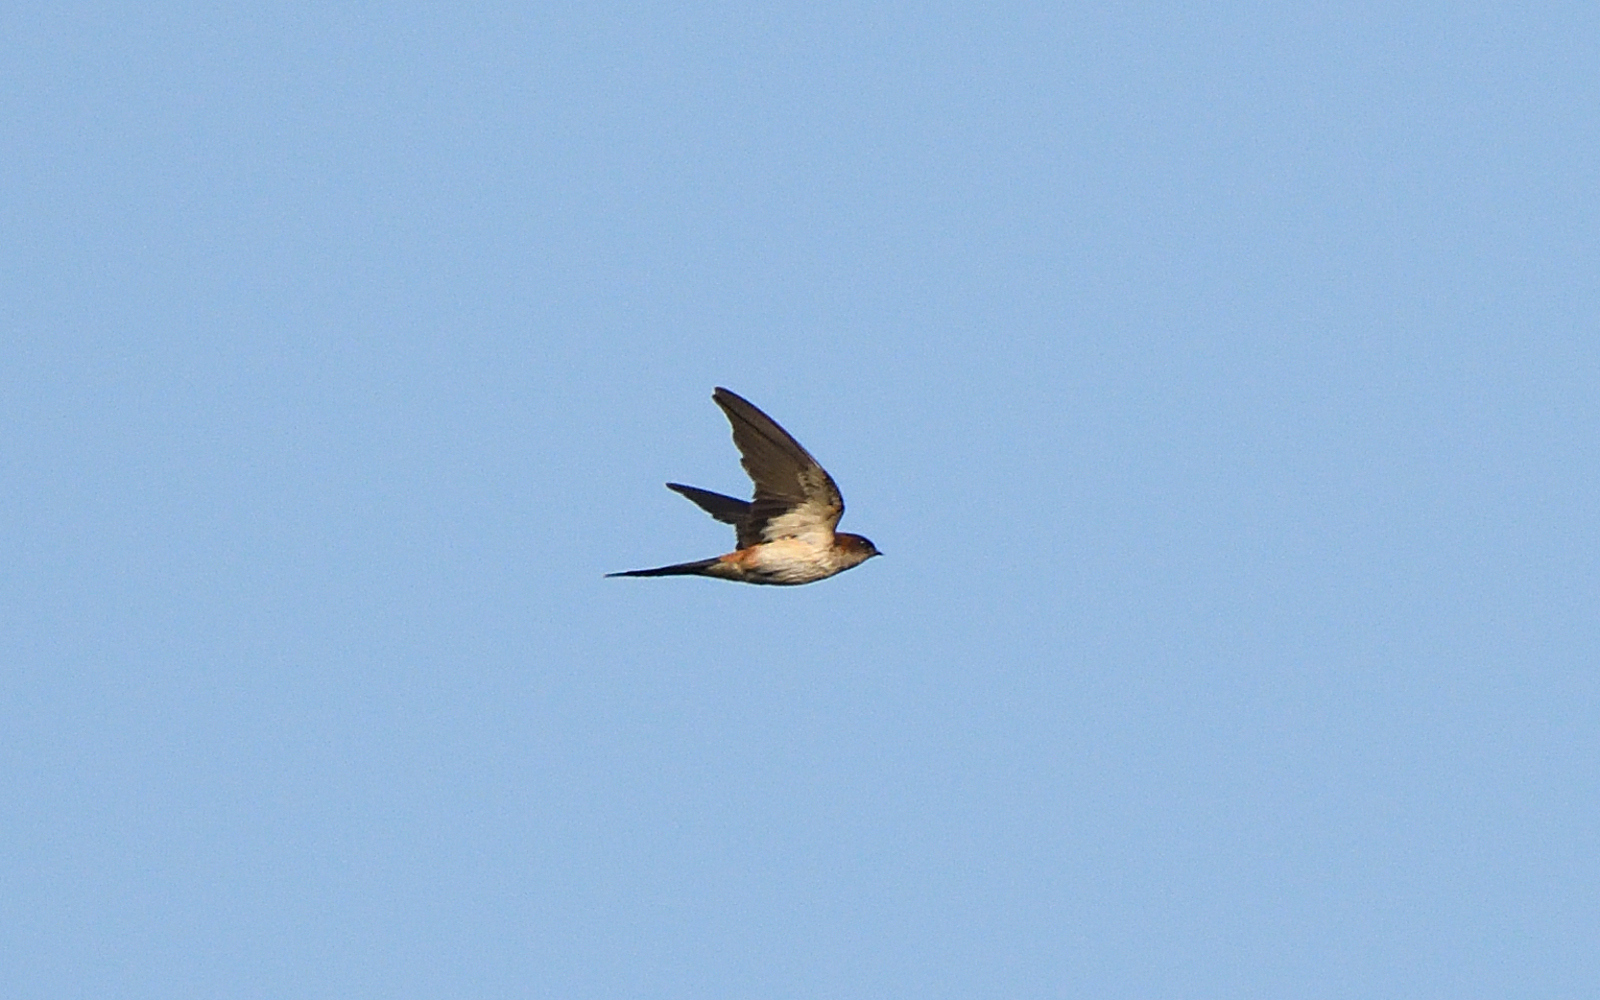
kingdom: Animalia
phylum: Chordata
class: Aves
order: Passeriformes
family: Hirundinidae
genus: Cecropis
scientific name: Cecropis daurica
